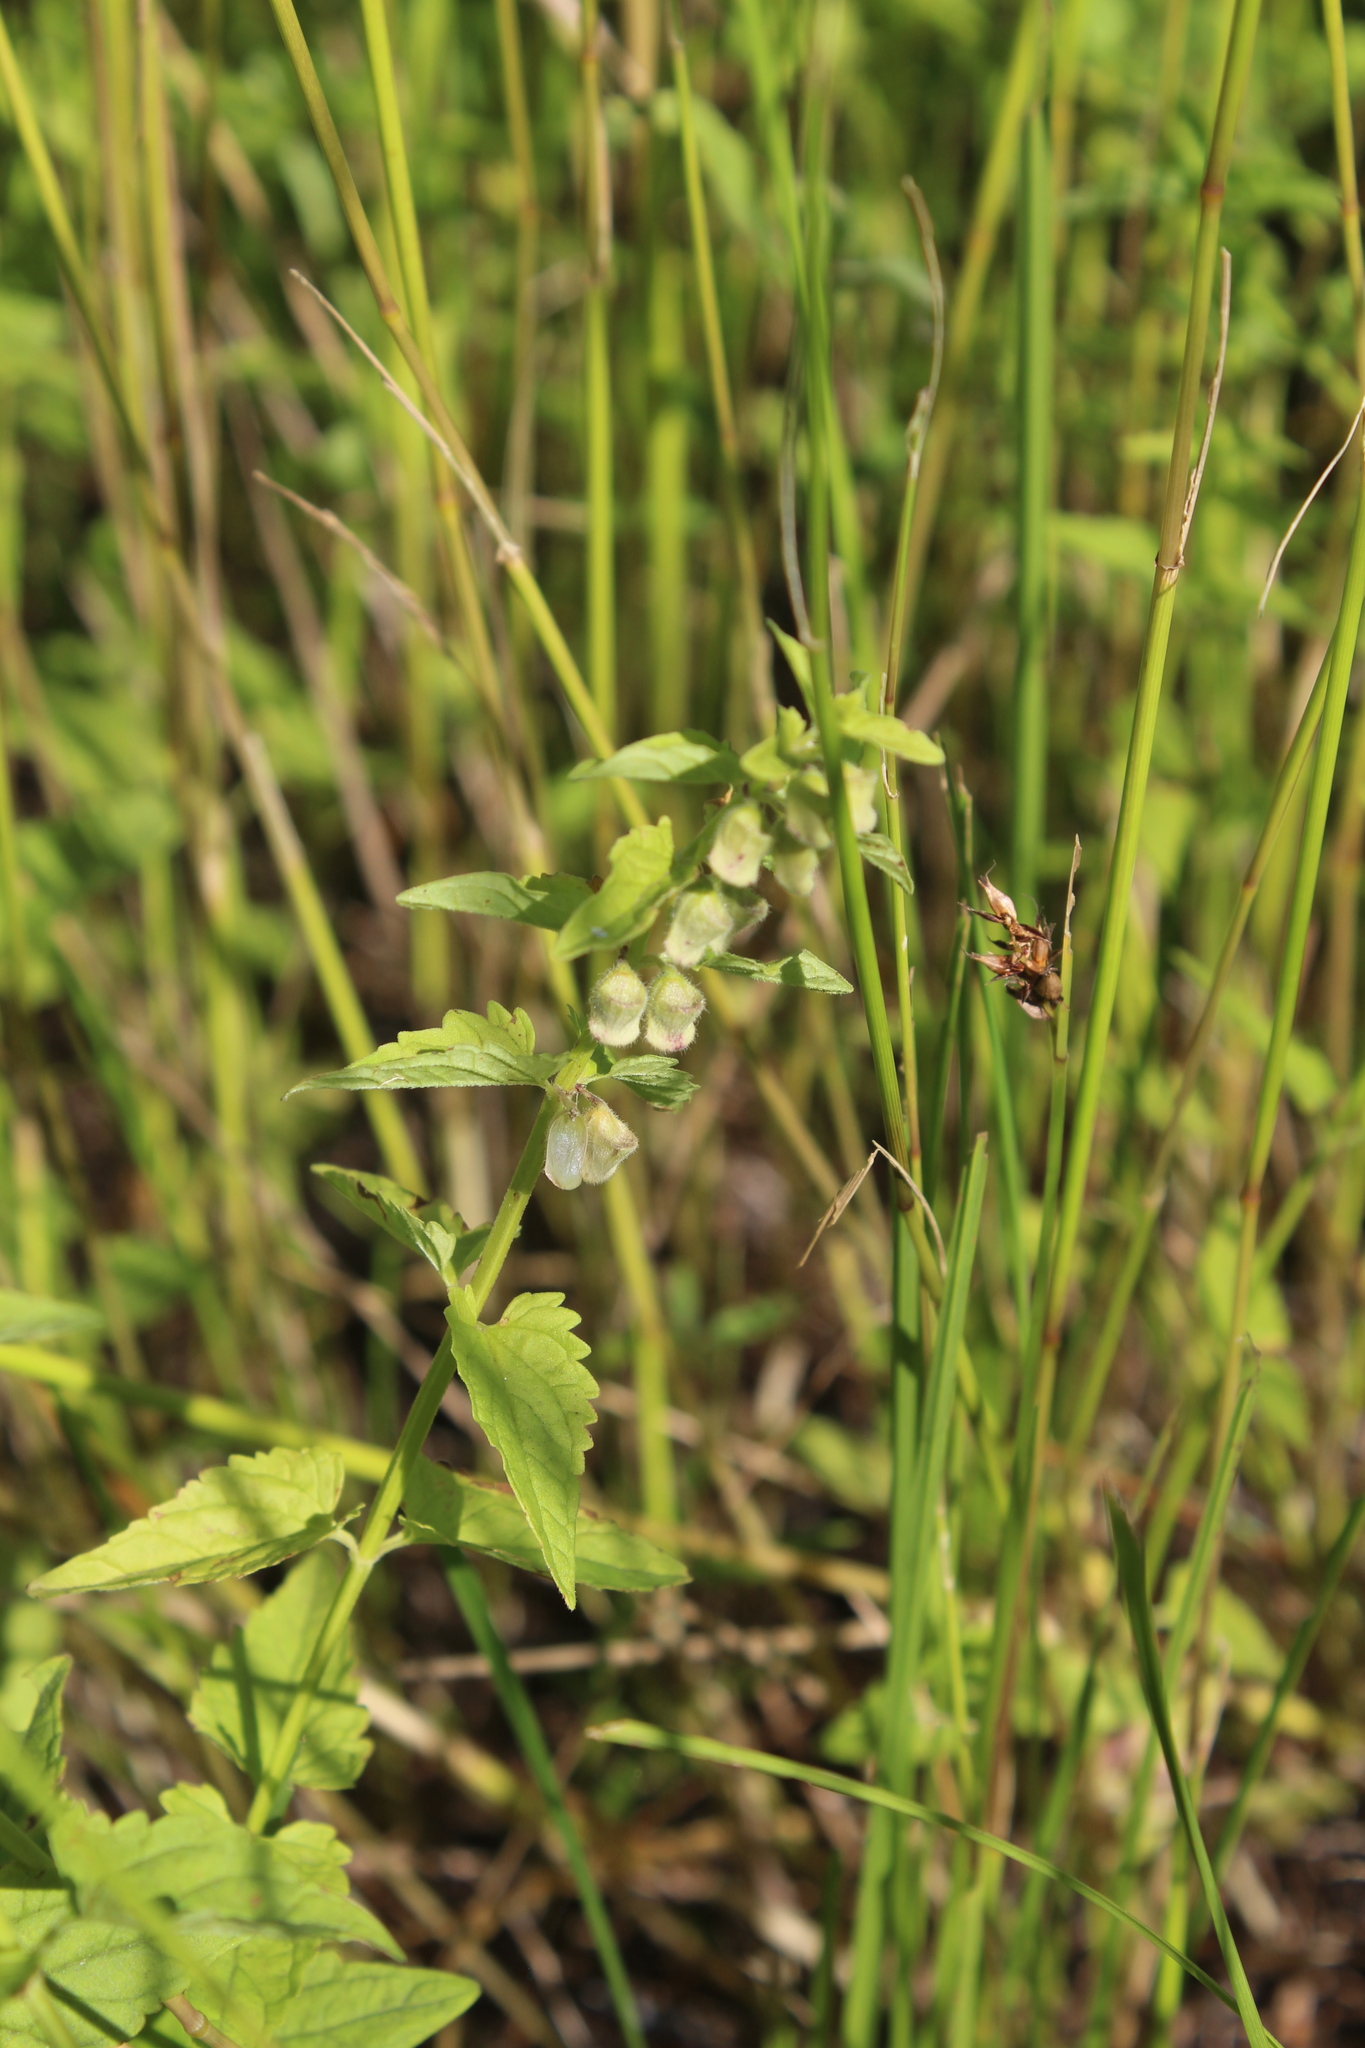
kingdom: Plantae
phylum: Tracheophyta
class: Magnoliopsida
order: Lamiales
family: Lamiaceae
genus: Scutellaria
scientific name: Scutellaria galericulata
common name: Skullcap
